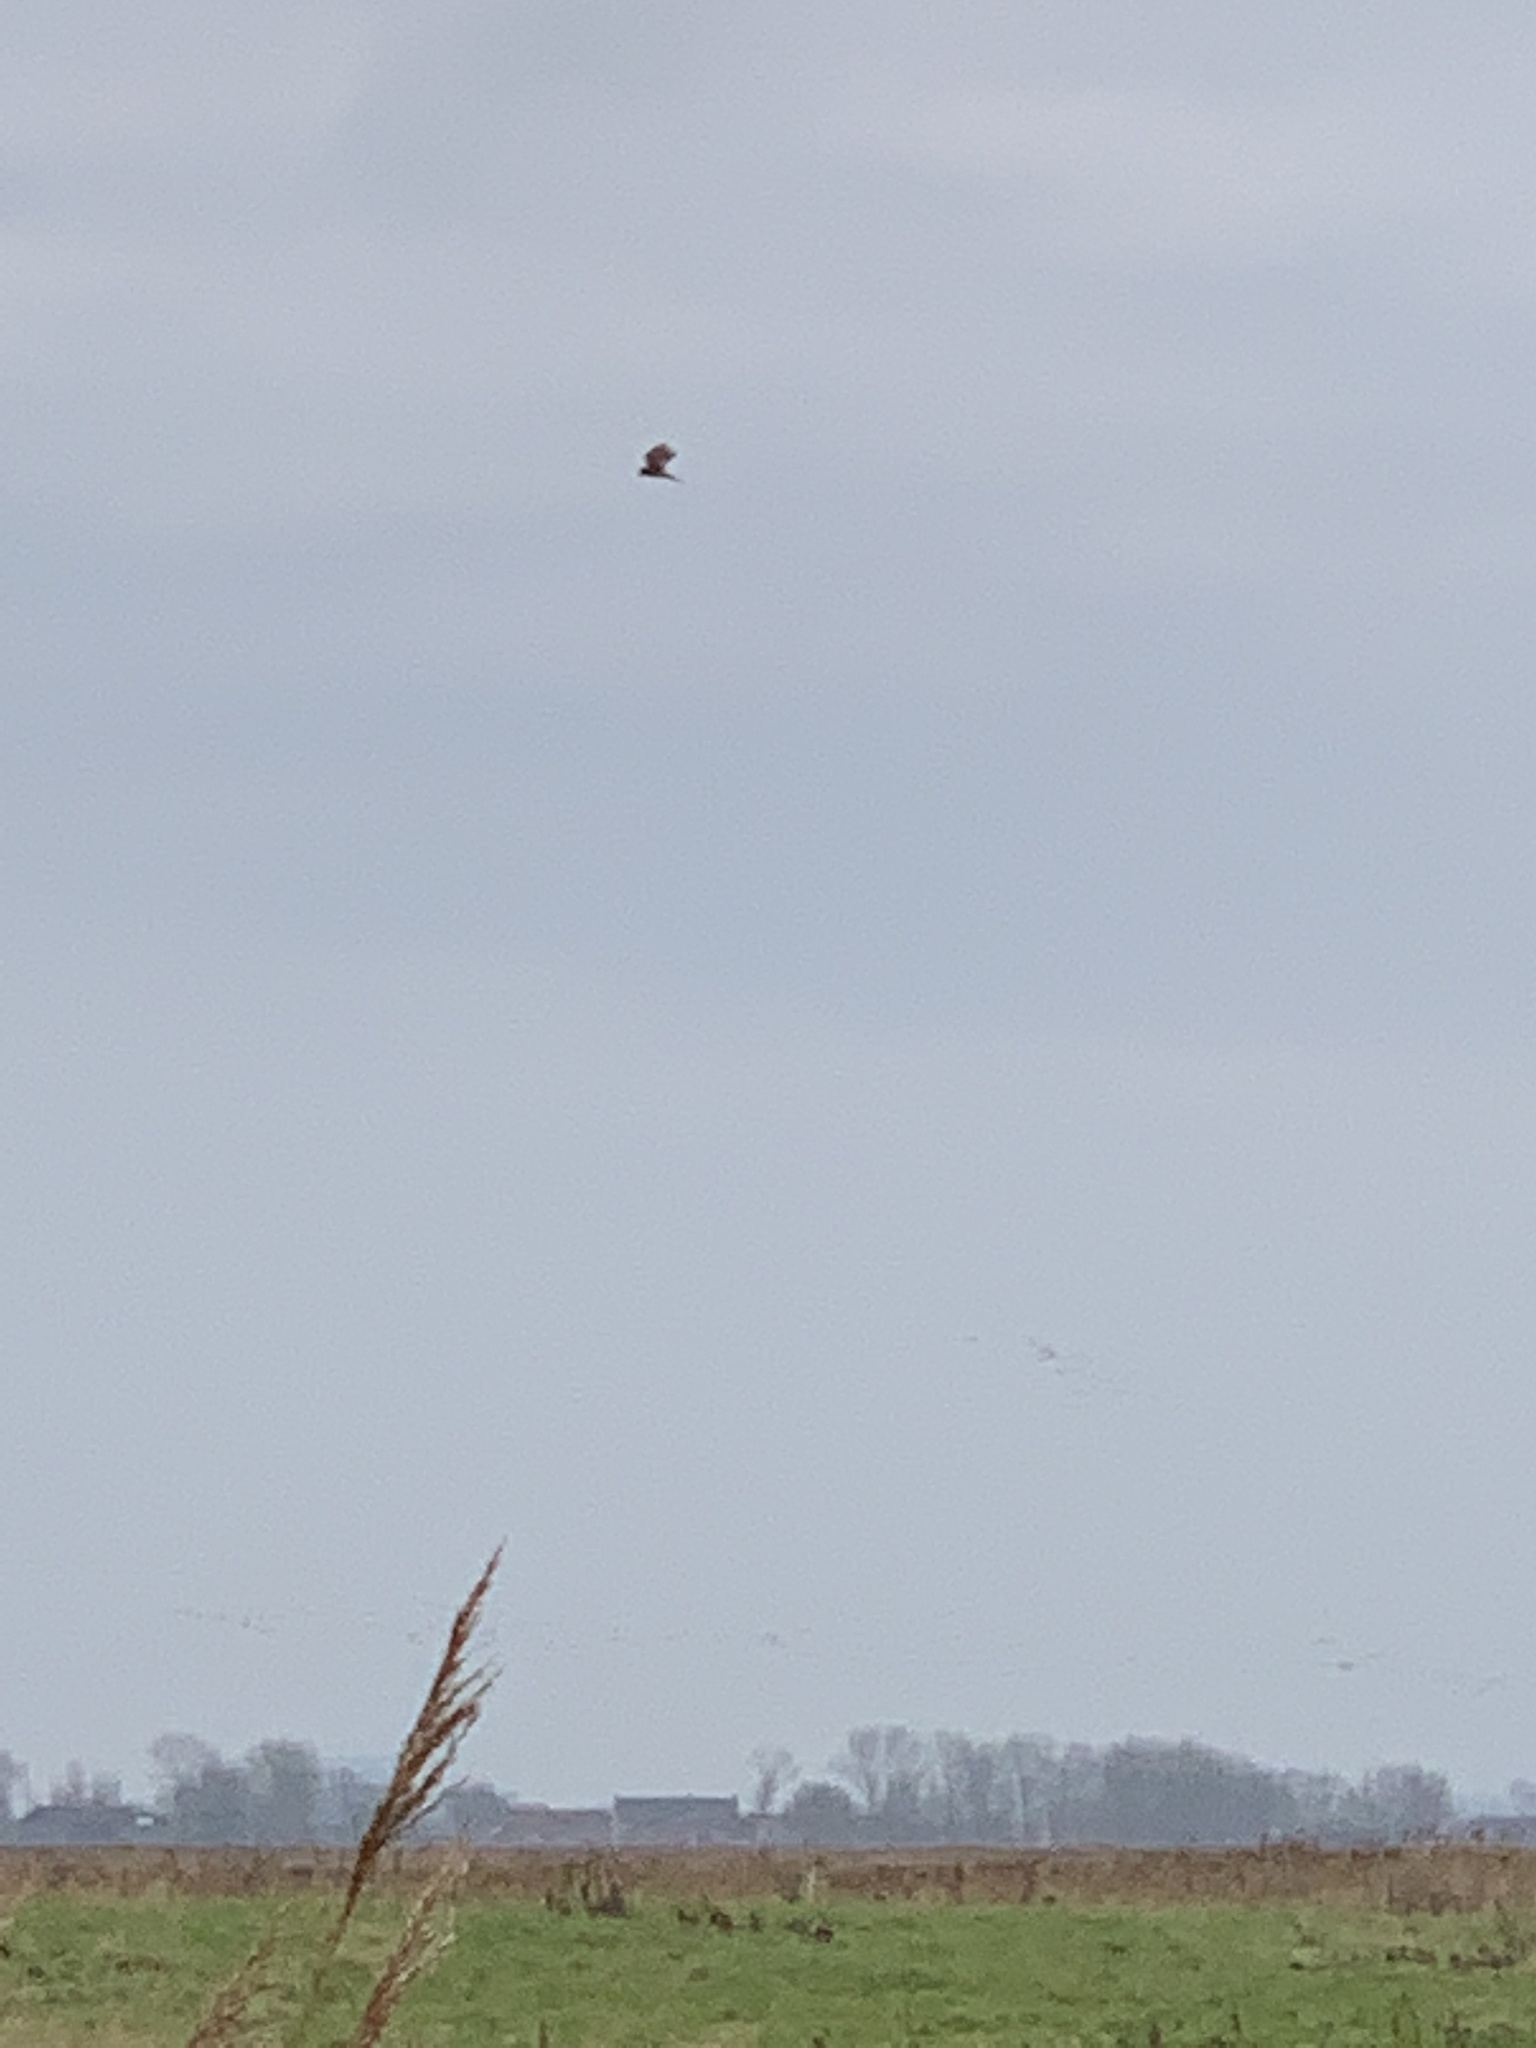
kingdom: Animalia
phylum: Chordata
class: Aves
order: Falconiformes
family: Falconidae
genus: Falco
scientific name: Falco tinnunculus
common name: Common kestrel
